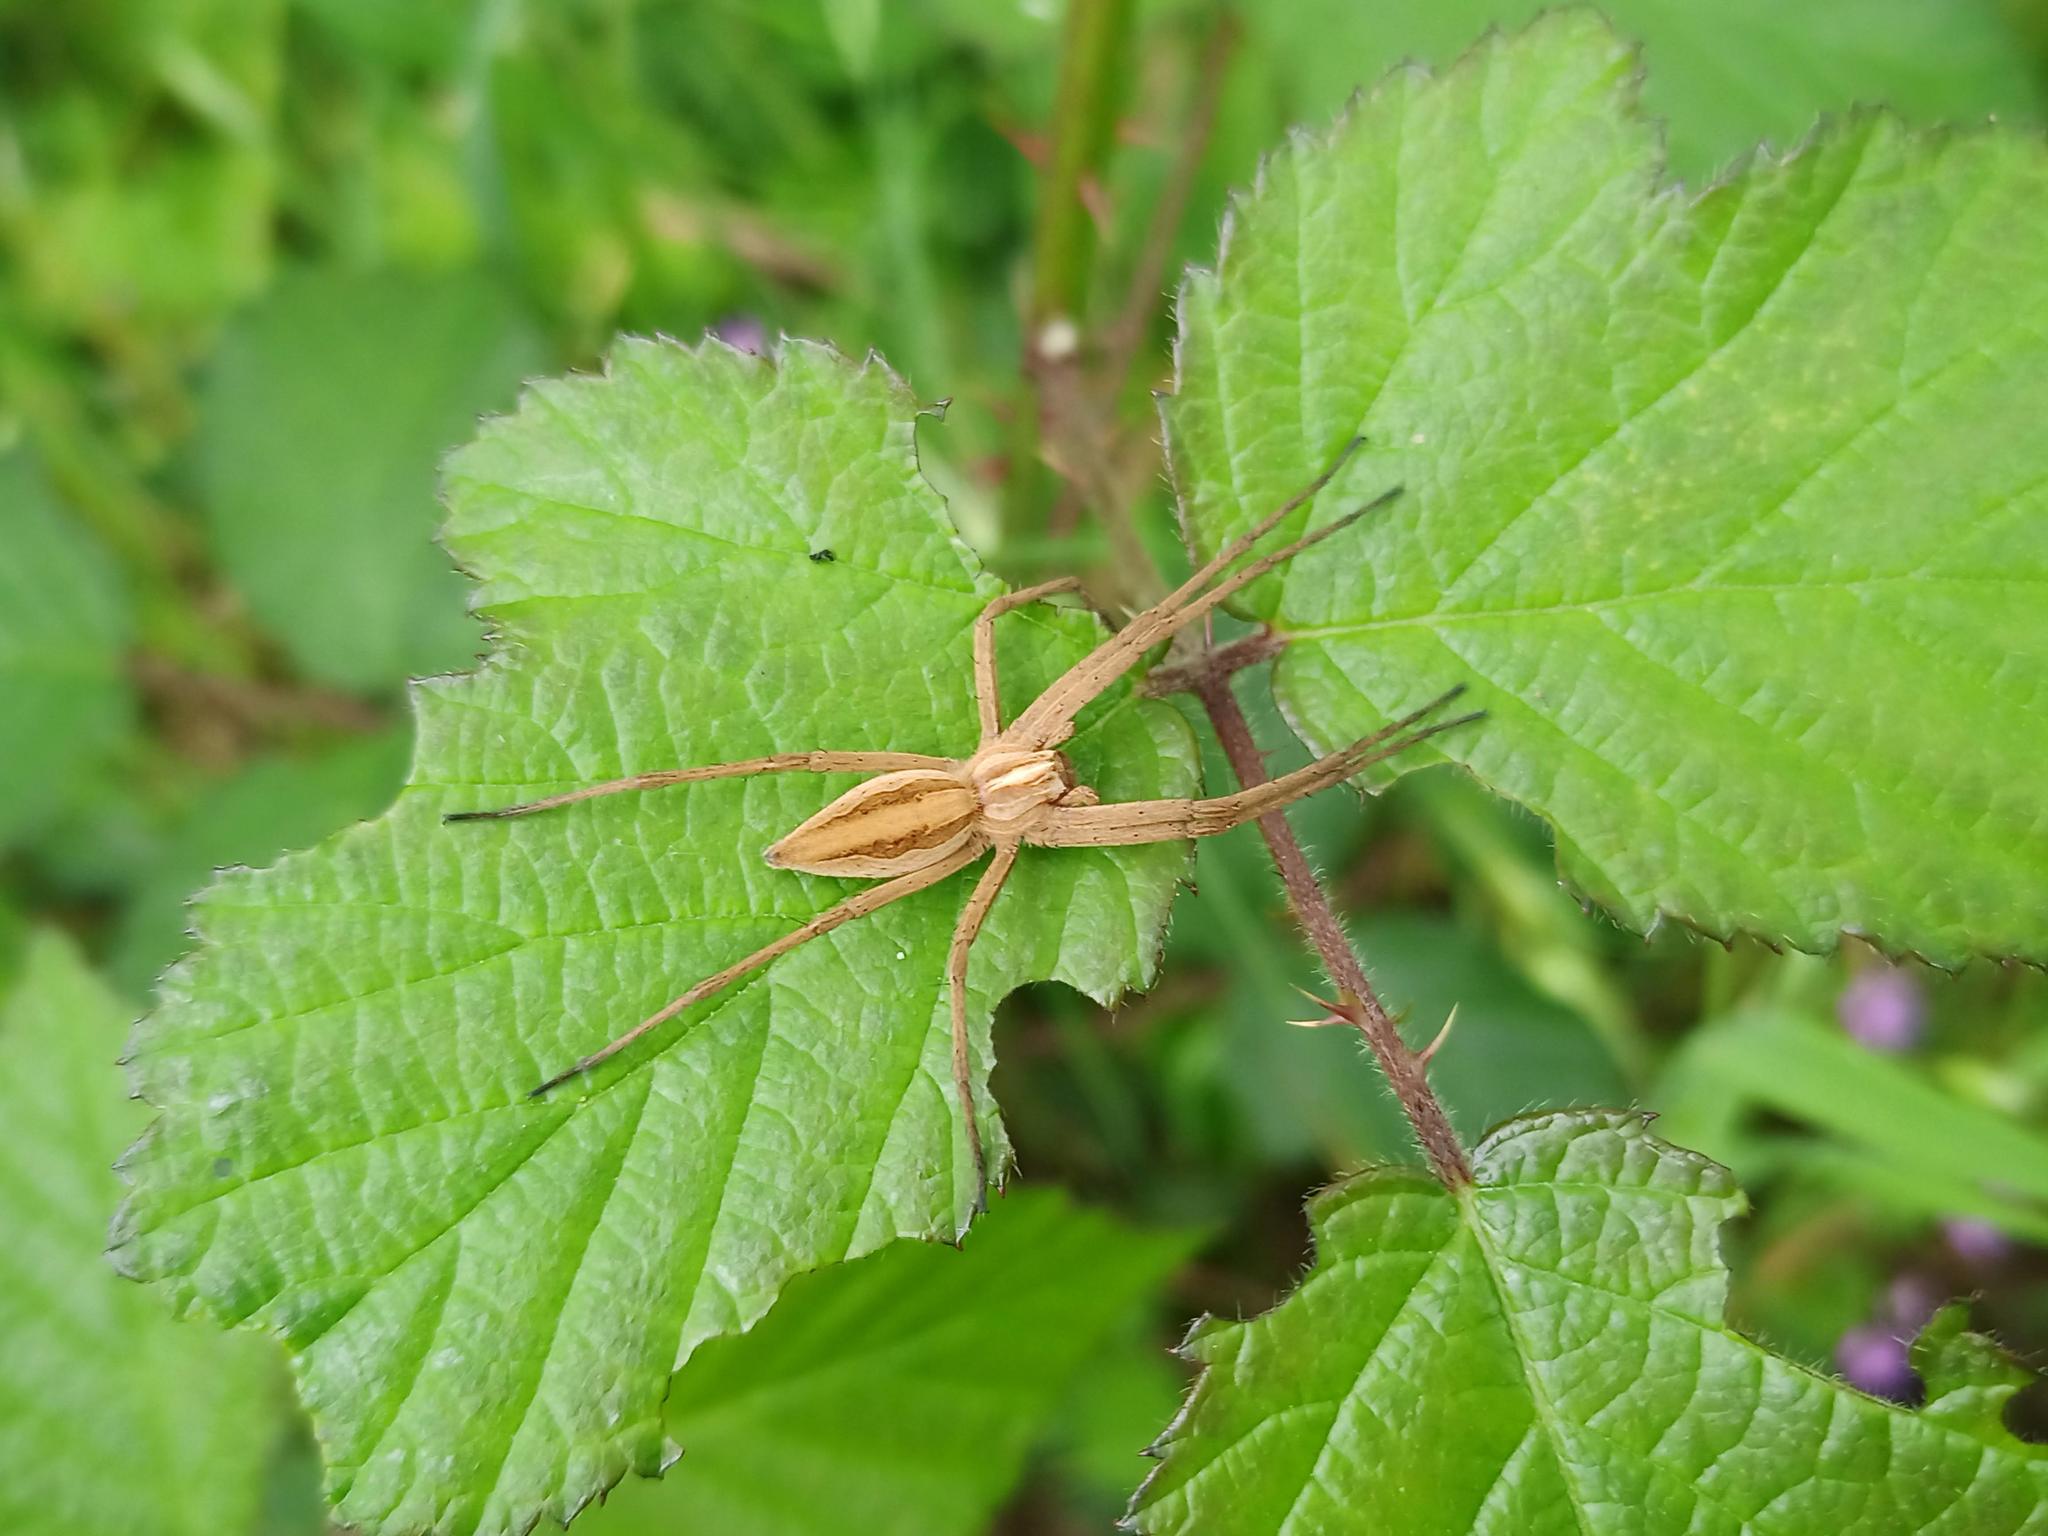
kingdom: Animalia
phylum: Arthropoda
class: Arachnida
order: Araneae
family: Pisauridae
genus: Pisaura
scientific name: Pisaura mirabilis
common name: Tent spider
